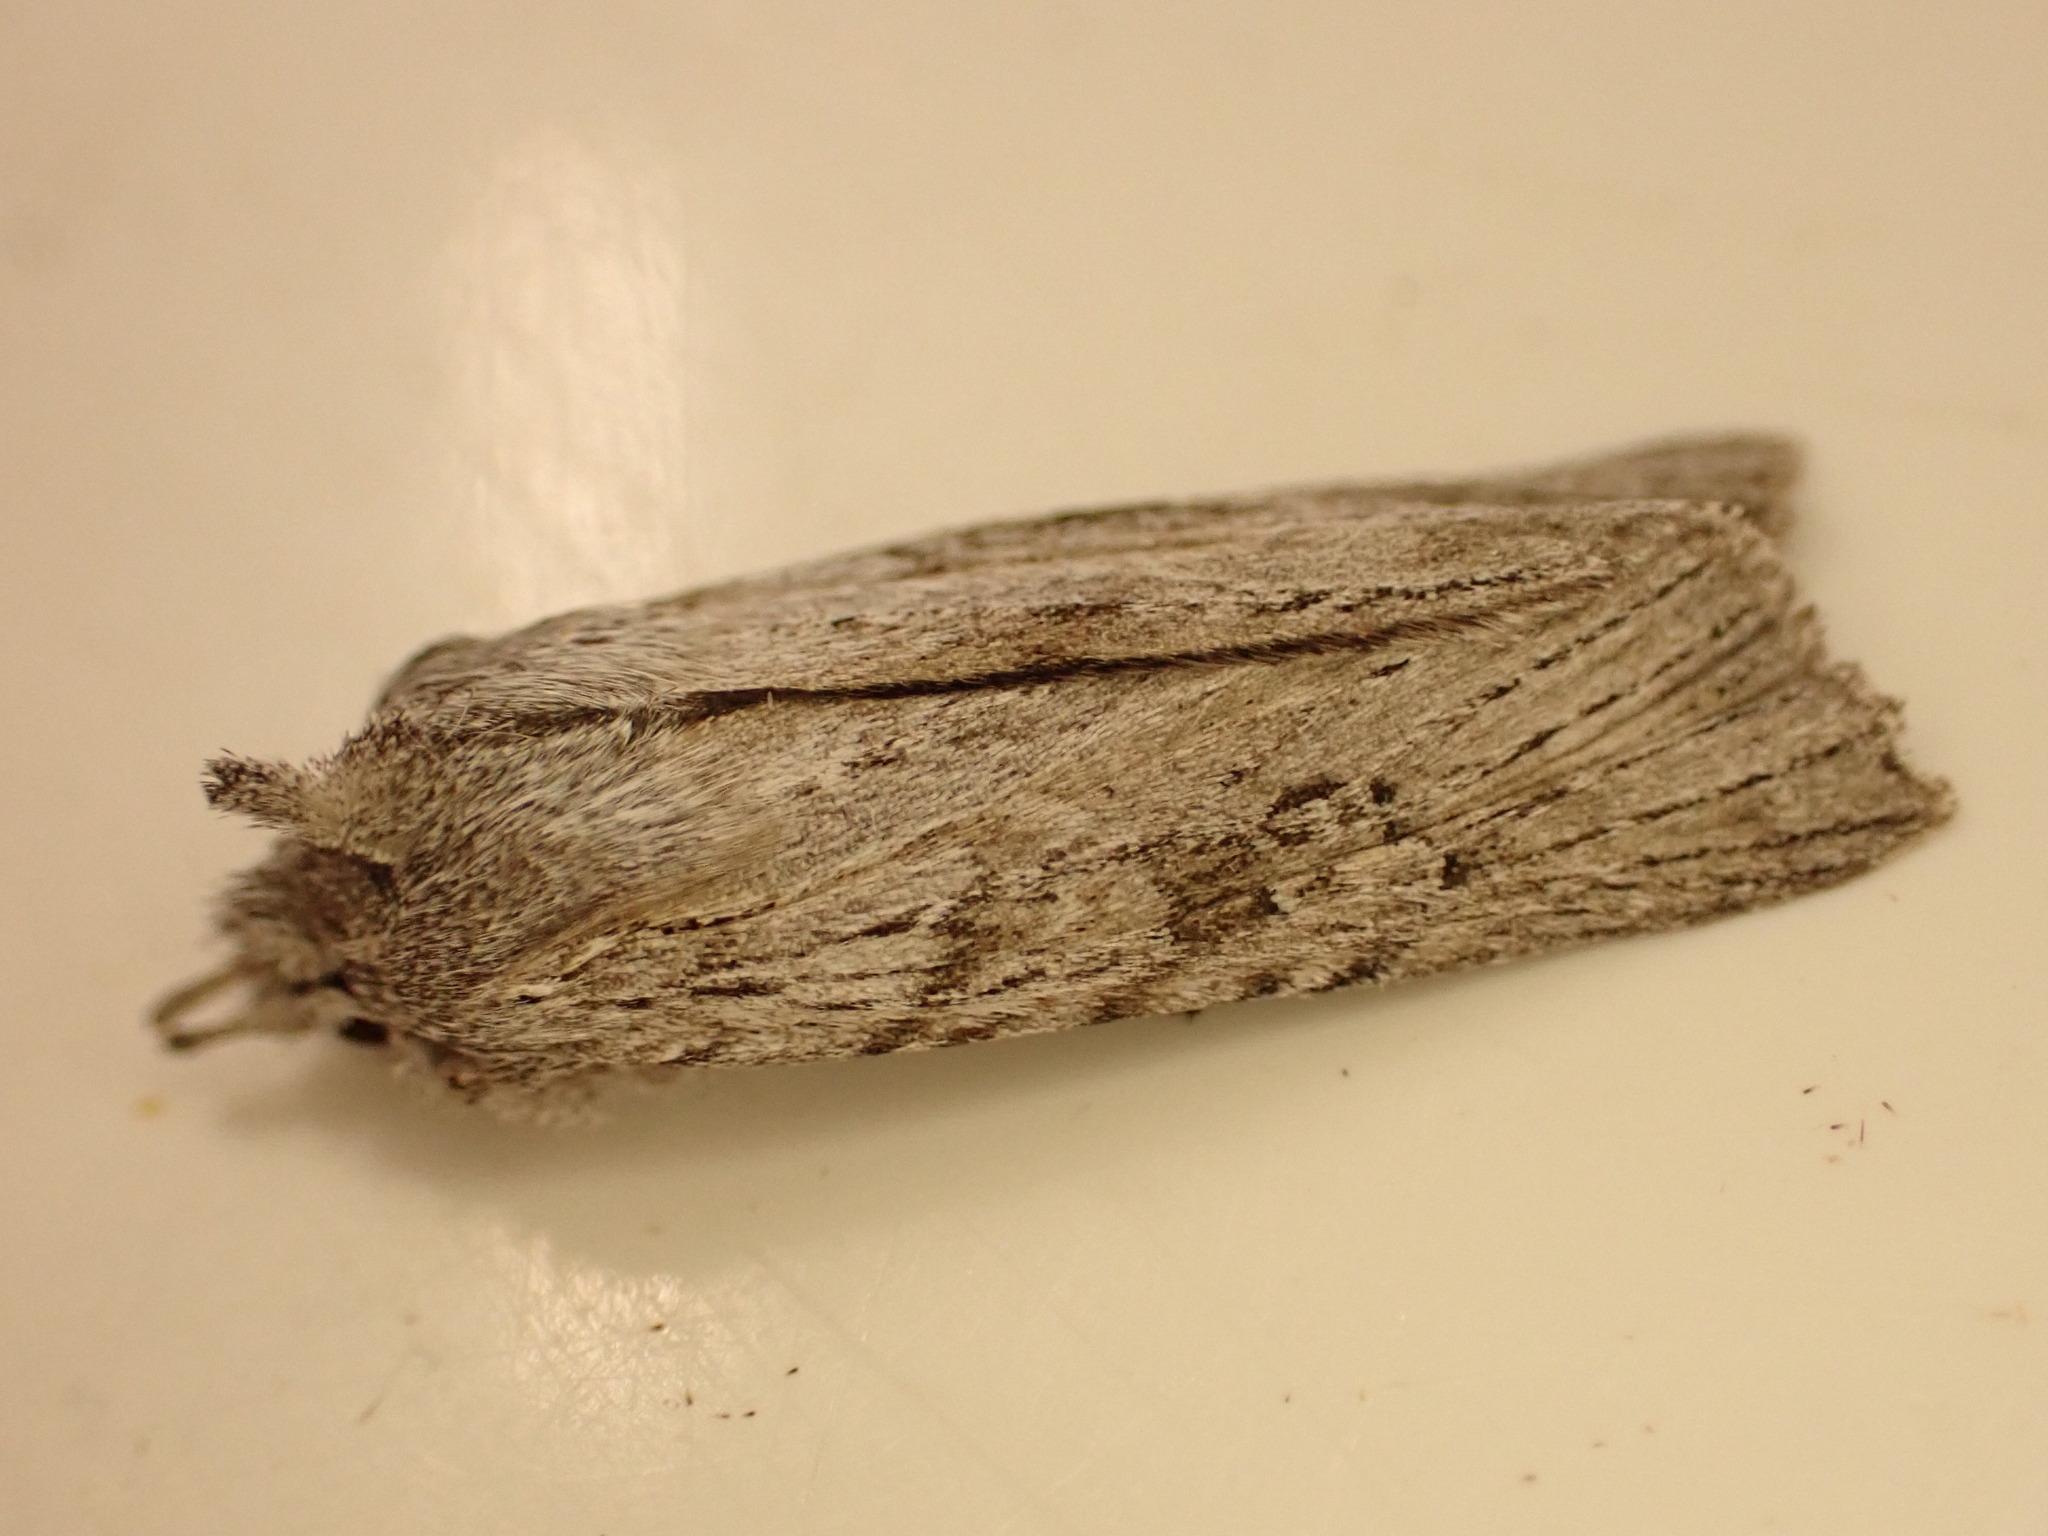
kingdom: Animalia
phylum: Arthropoda
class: Insecta
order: Lepidoptera
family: Noctuidae
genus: Physetica
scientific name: Physetica phricias
